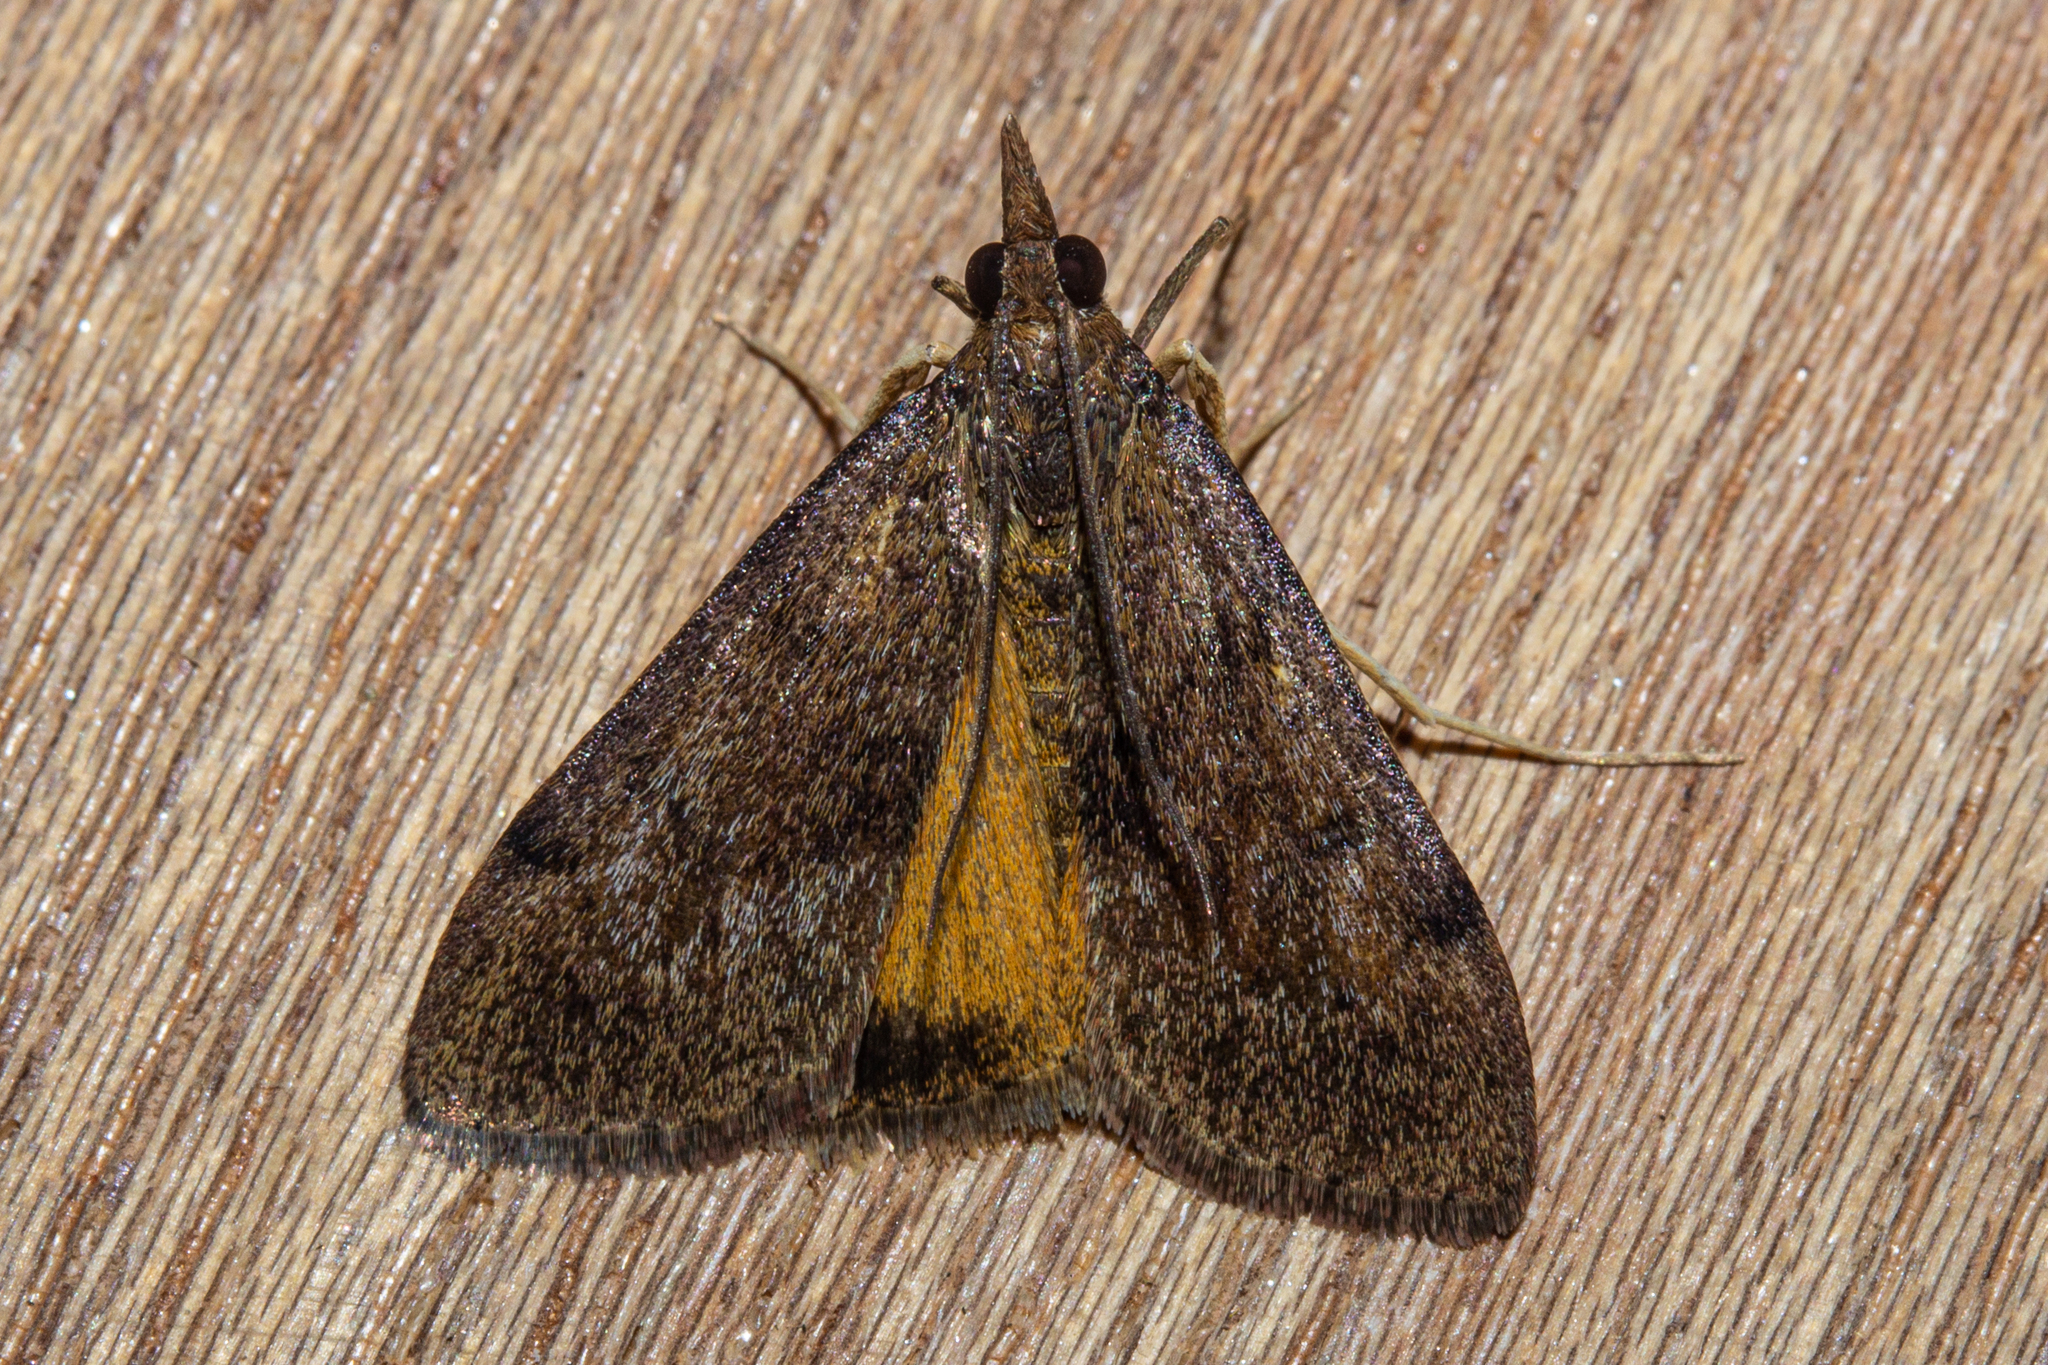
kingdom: Animalia
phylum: Arthropoda
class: Insecta
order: Lepidoptera
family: Crambidae
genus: Uresiphita
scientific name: Uresiphita
